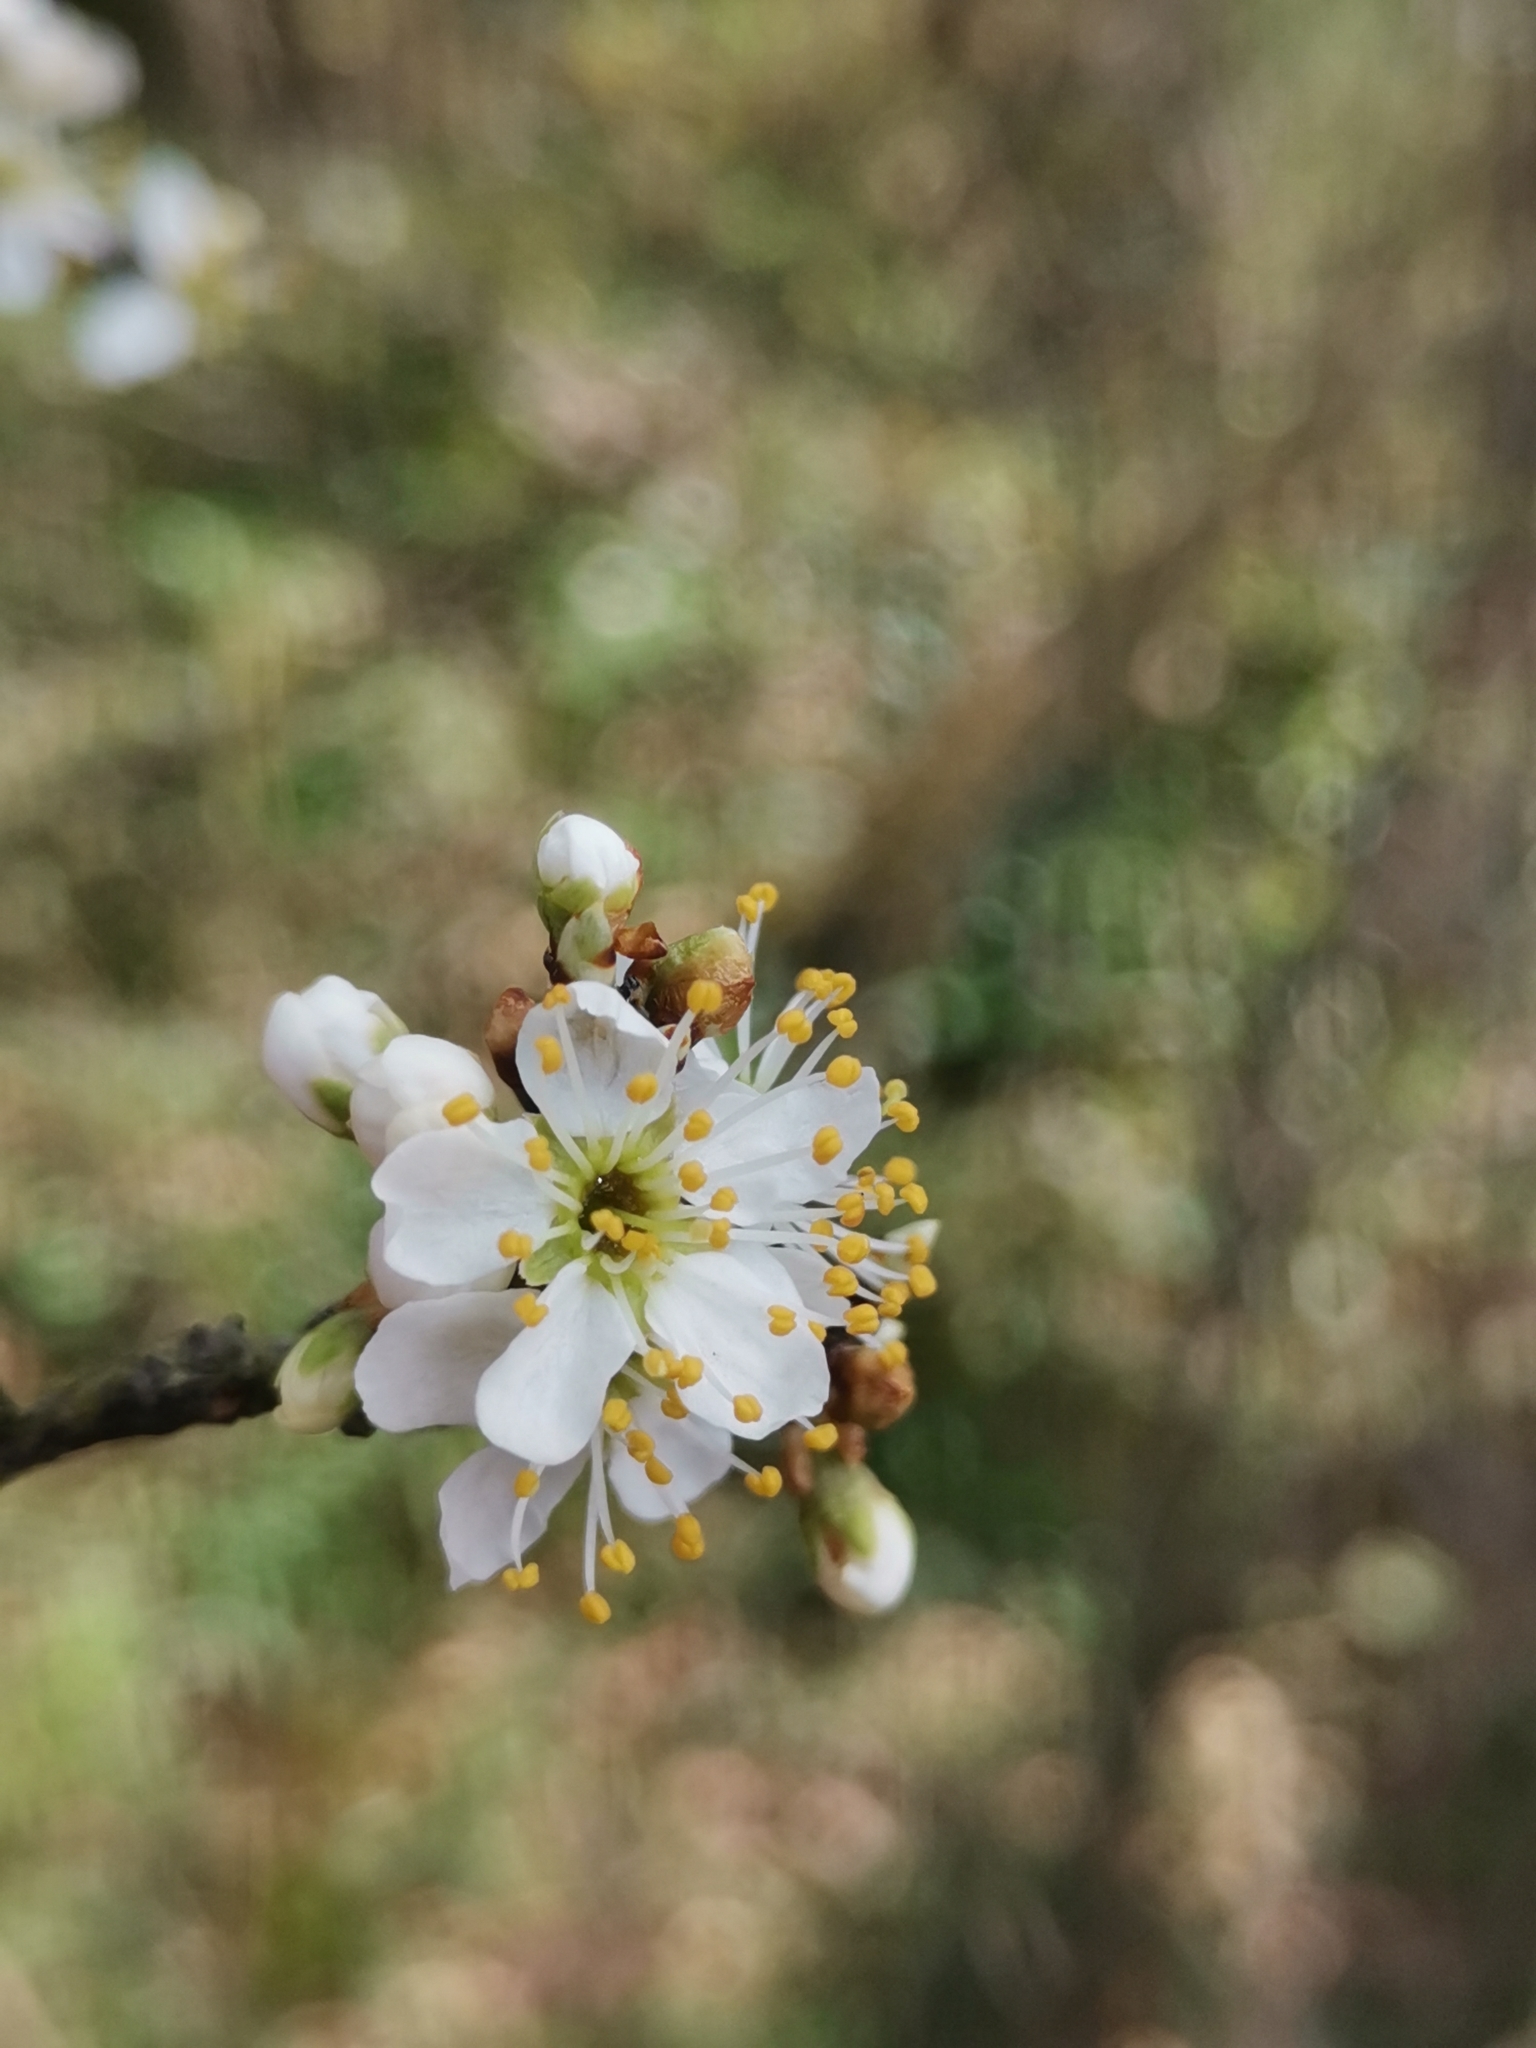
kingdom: Plantae
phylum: Tracheophyta
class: Magnoliopsida
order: Rosales
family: Rosaceae
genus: Prunus
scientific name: Prunus cerasifera
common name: Cherry plum
